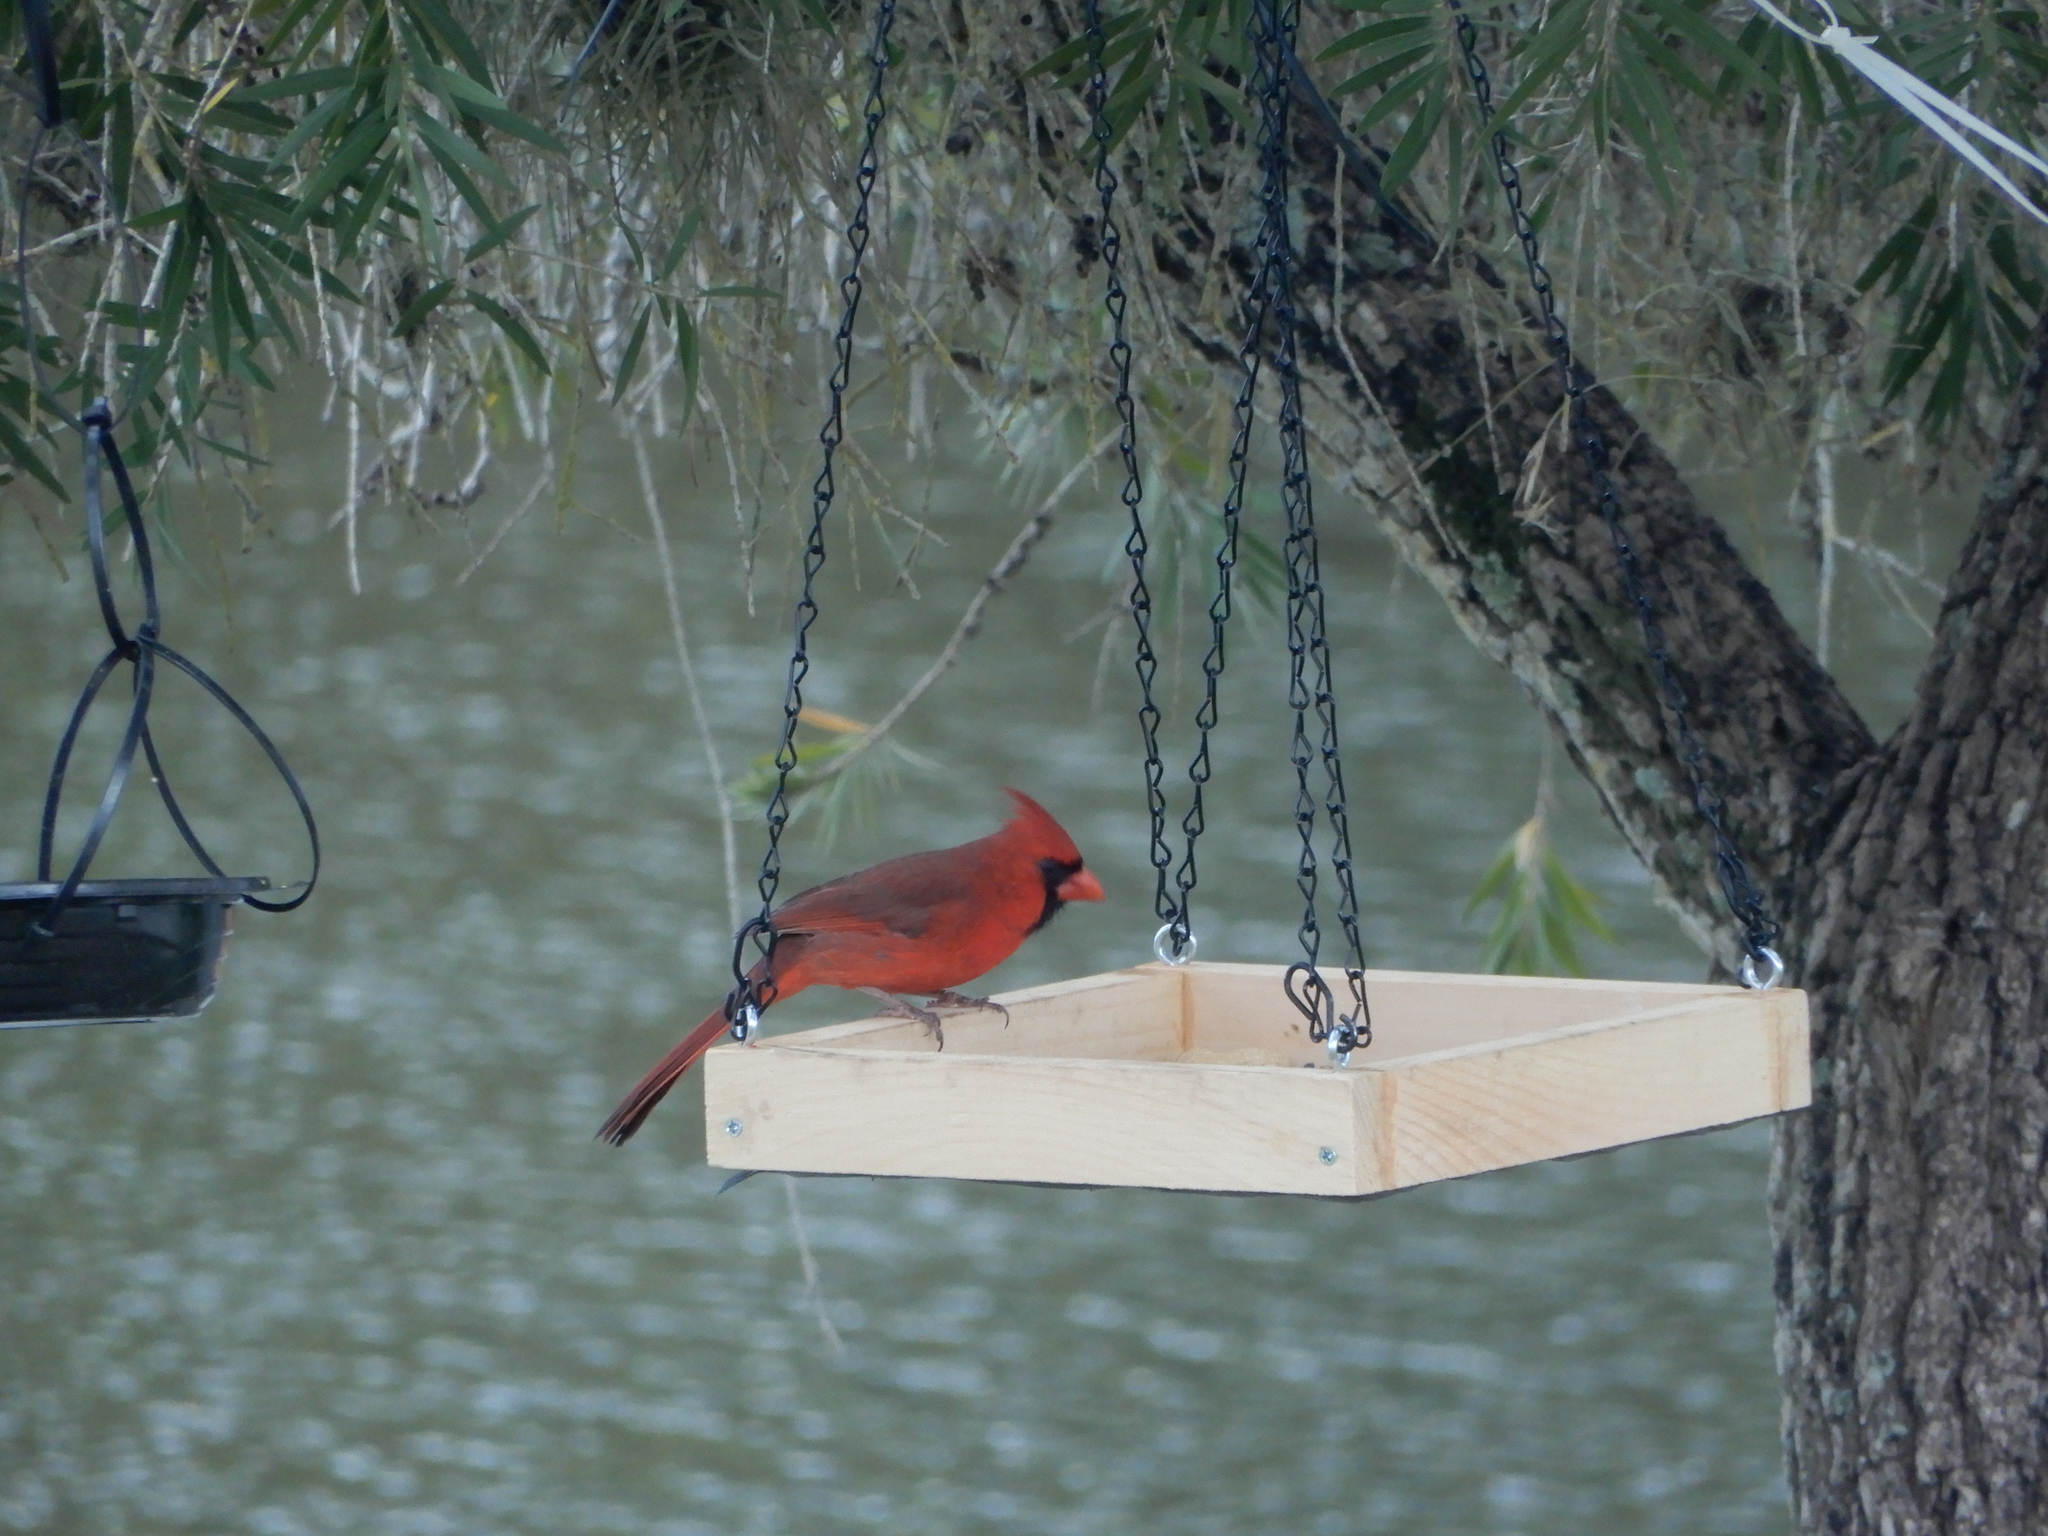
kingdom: Animalia
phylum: Chordata
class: Aves
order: Passeriformes
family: Cardinalidae
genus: Cardinalis
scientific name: Cardinalis cardinalis
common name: Northern cardinal
